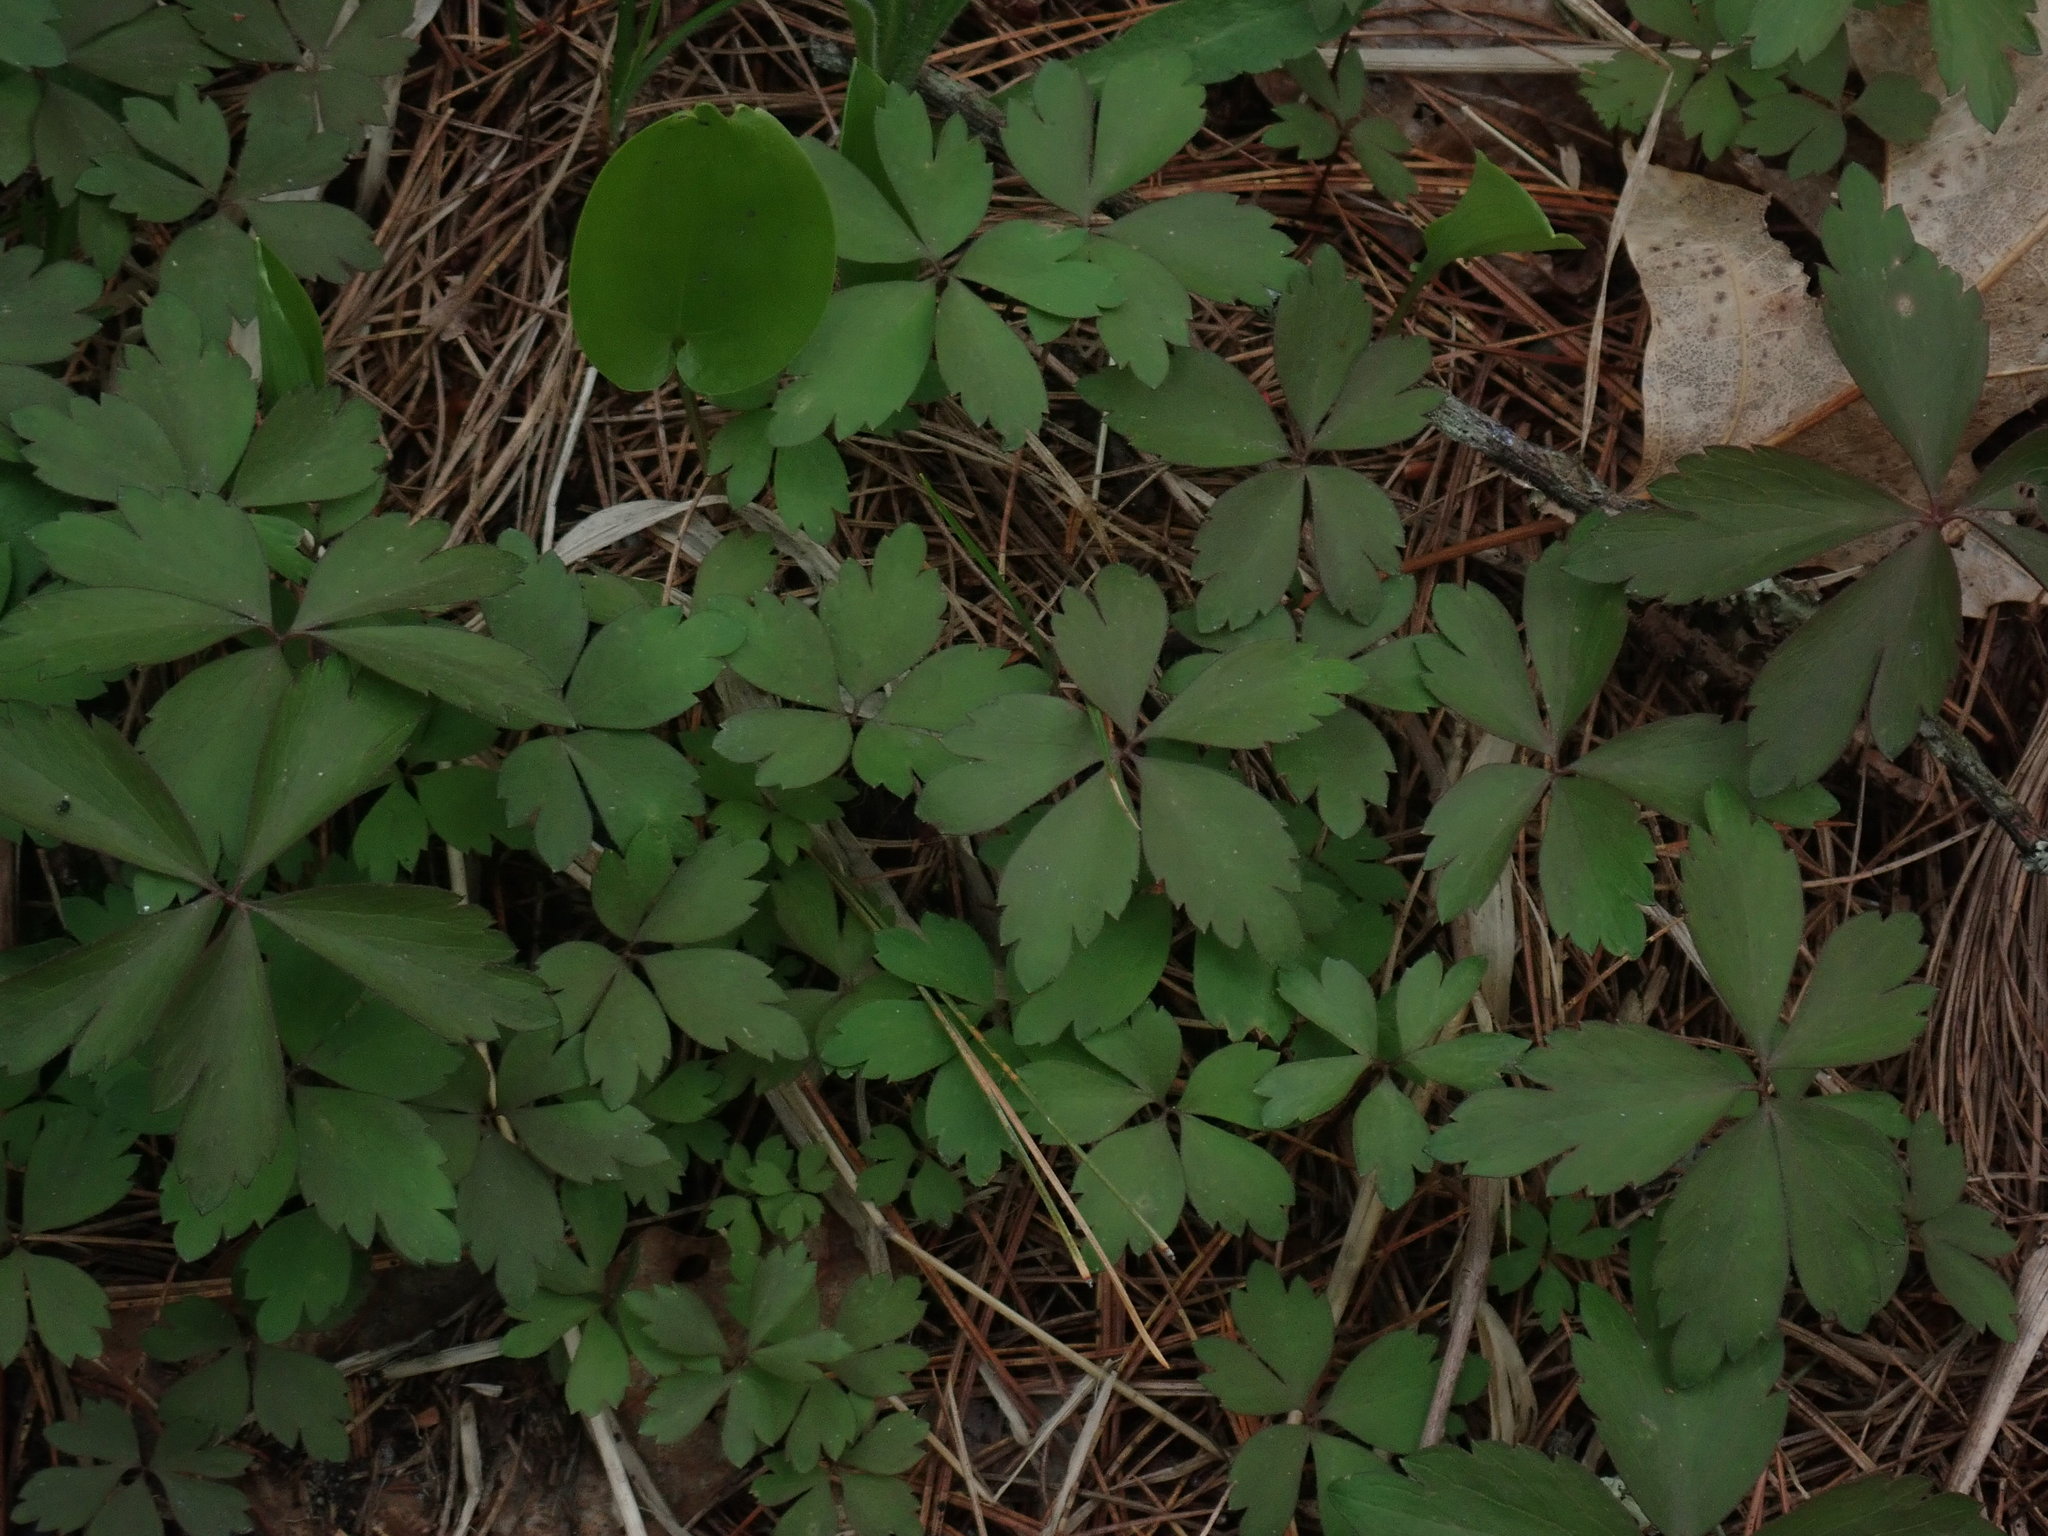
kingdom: Plantae
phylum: Tracheophyta
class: Magnoliopsida
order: Ranunculales
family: Ranunculaceae
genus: Anemone
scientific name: Anemone quinquefolia
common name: Wood anemone
